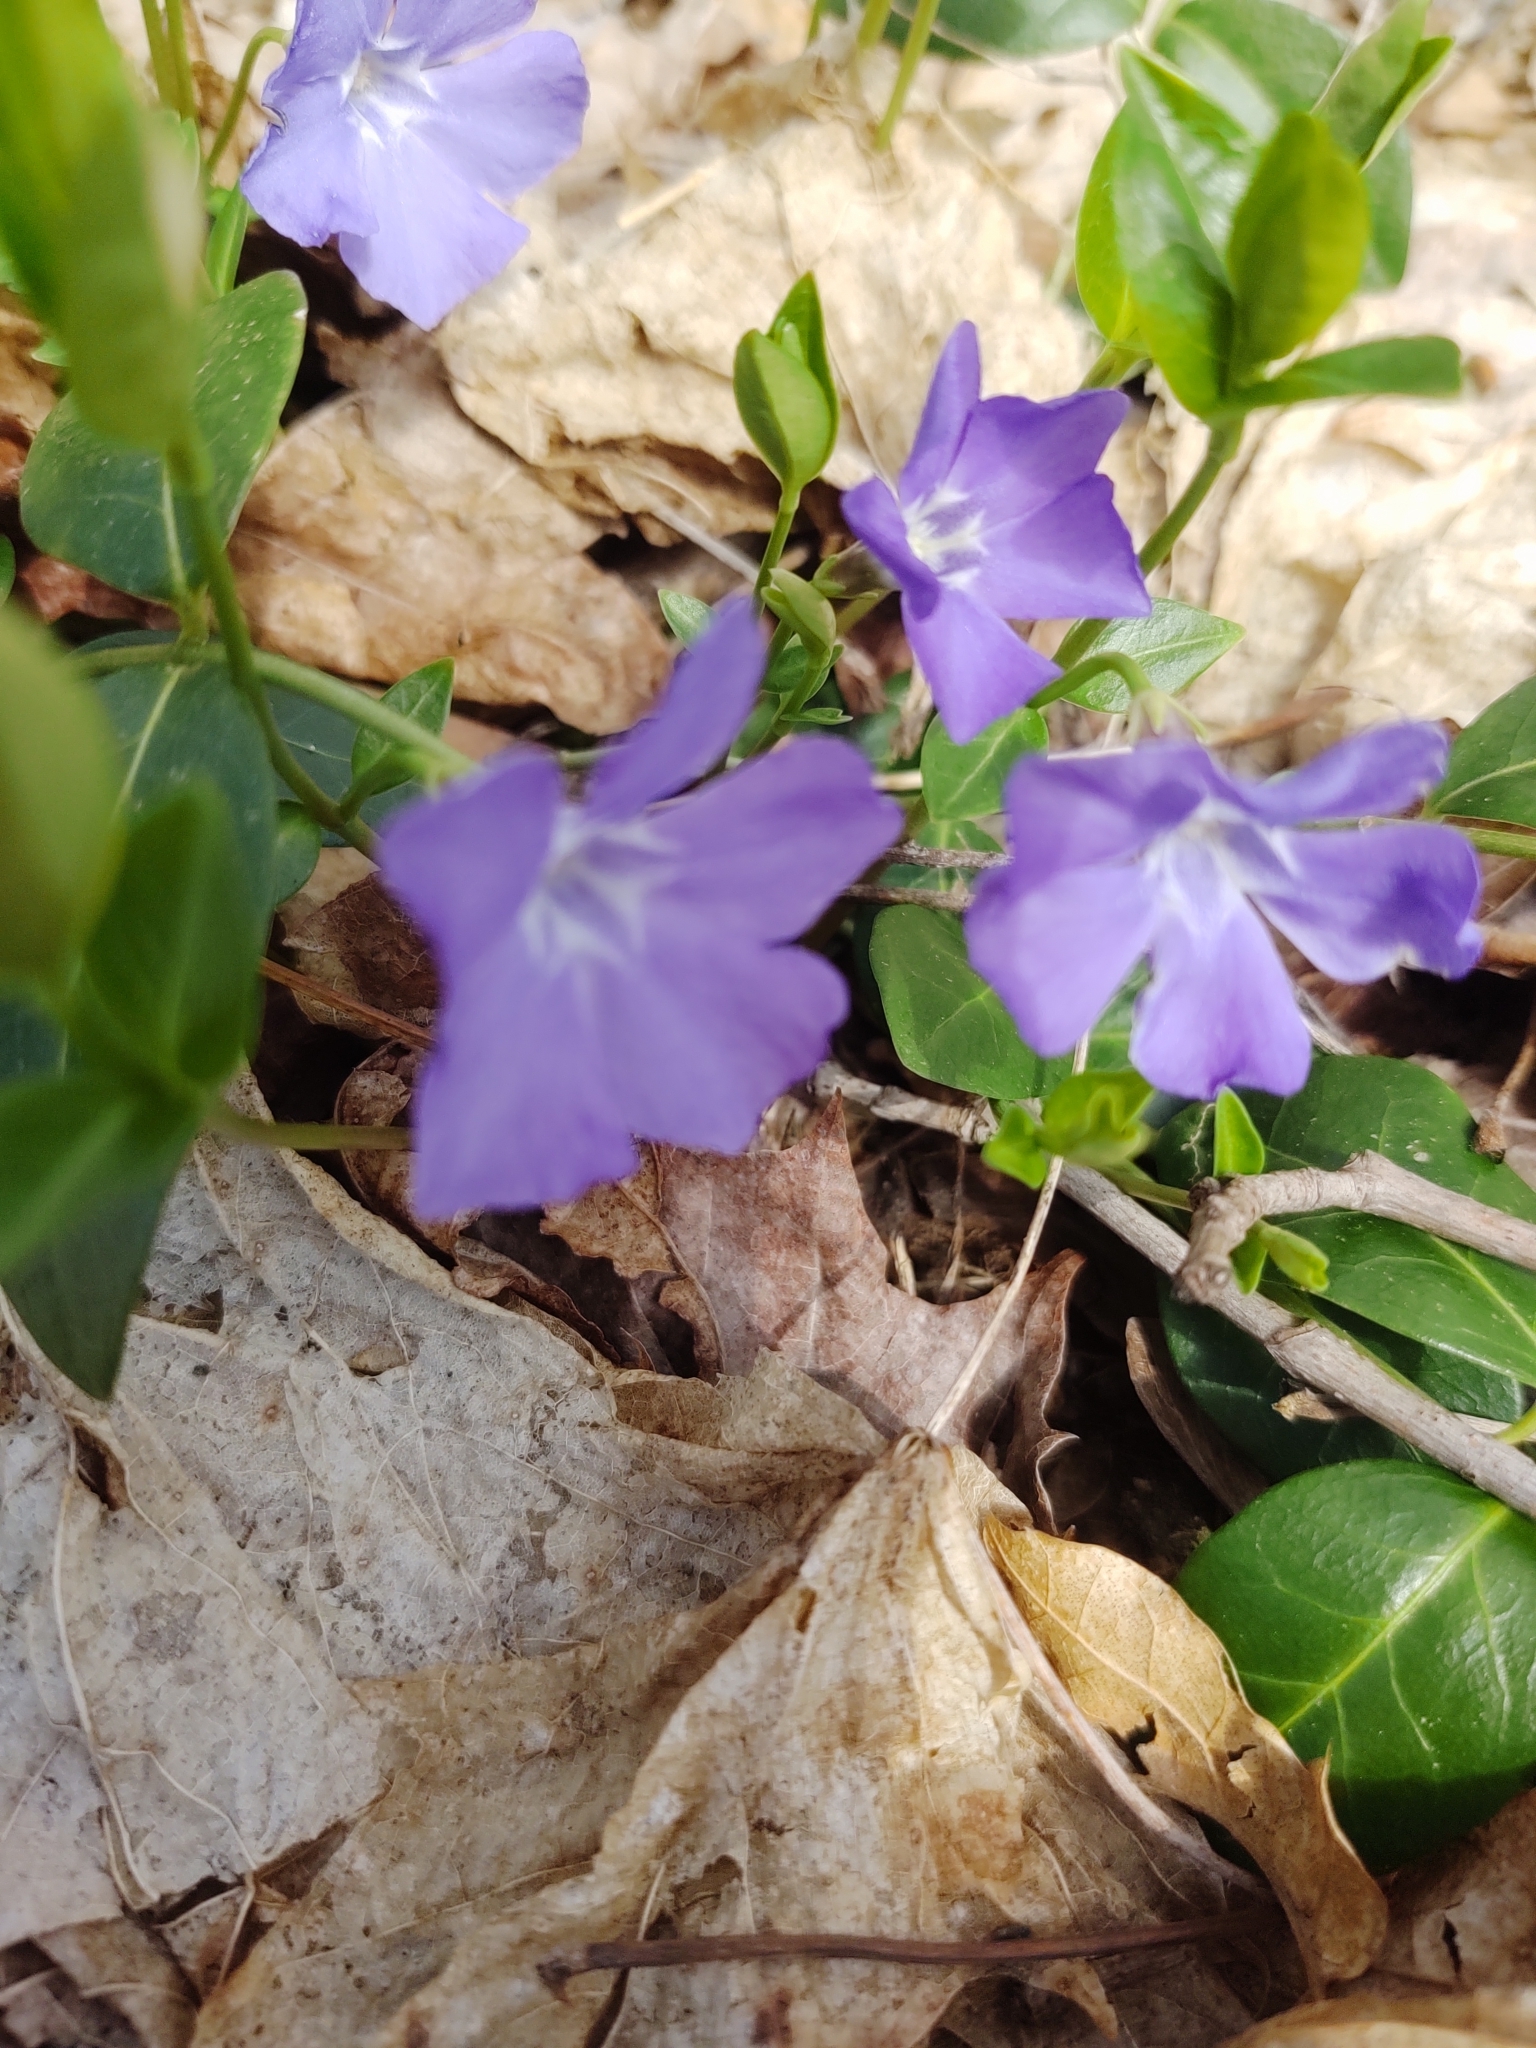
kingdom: Plantae
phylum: Tracheophyta
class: Magnoliopsida
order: Gentianales
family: Apocynaceae
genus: Vinca
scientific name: Vinca minor
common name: Lesser periwinkle
